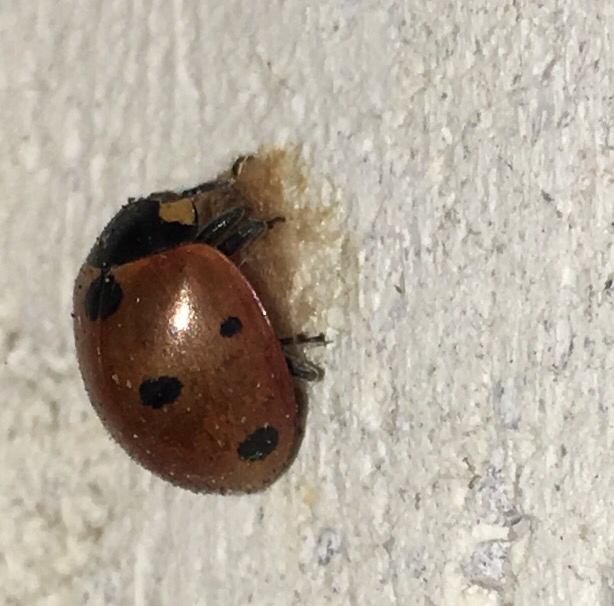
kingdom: Animalia
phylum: Arthropoda
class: Insecta
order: Coleoptera
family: Coccinellidae
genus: Coccinella
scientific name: Coccinella septempunctata
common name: Sevenspotted lady beetle
